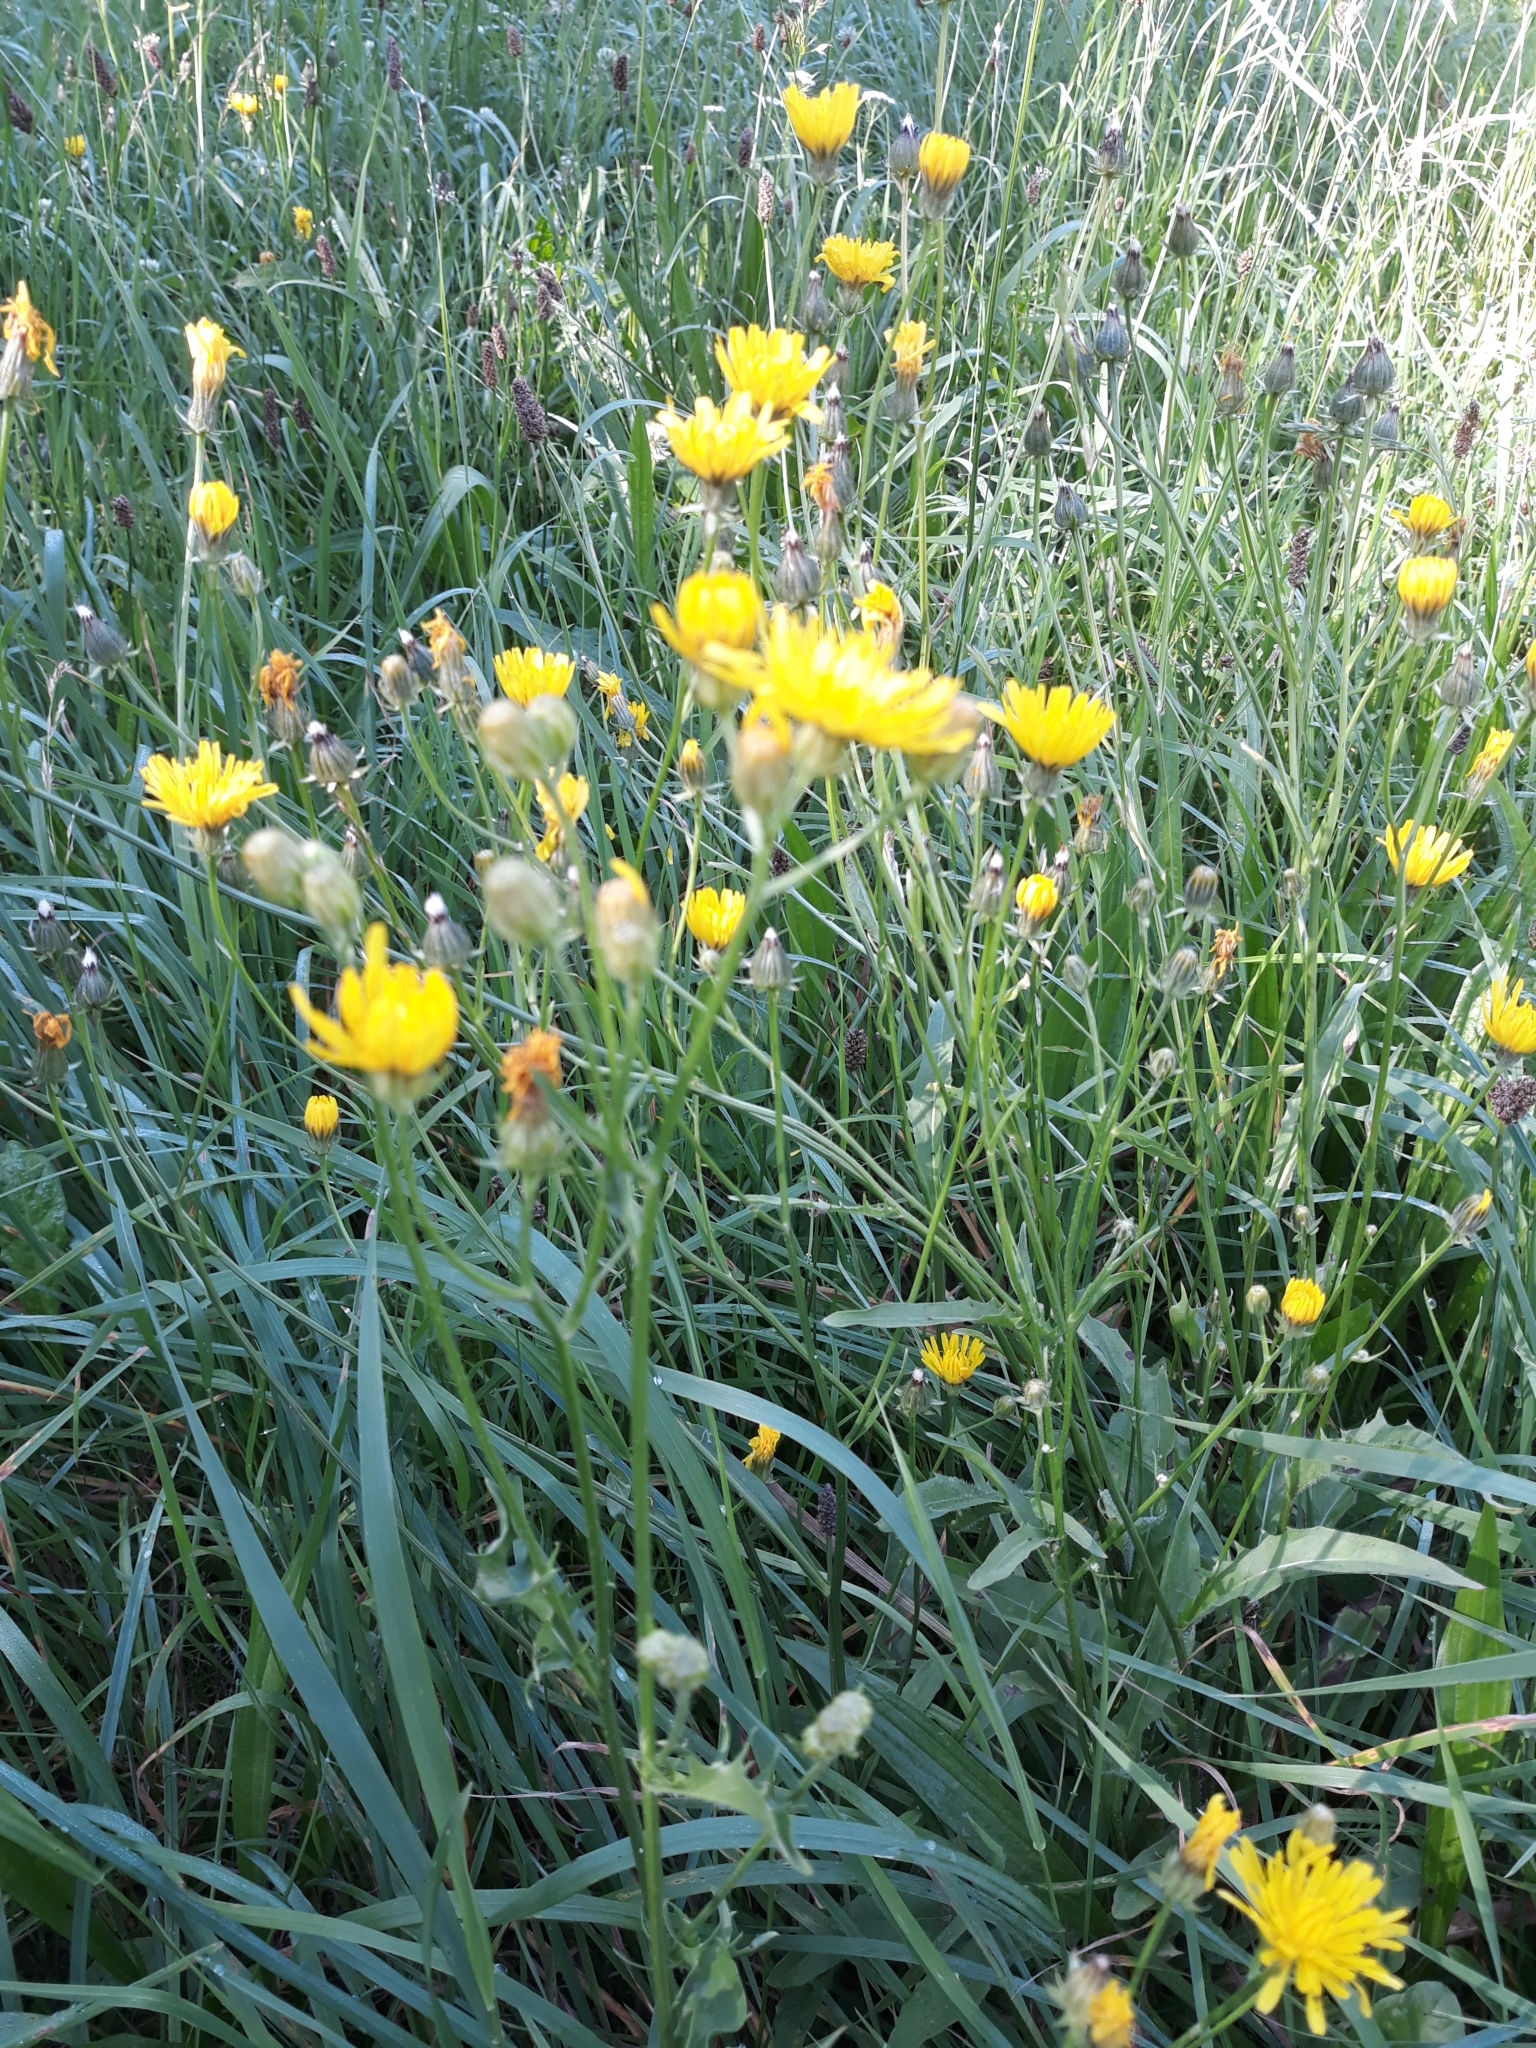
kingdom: Plantae
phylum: Tracheophyta
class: Magnoliopsida
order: Asterales
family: Asteraceae
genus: Crepis
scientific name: Crepis biennis
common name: Rough hawk's-beard
